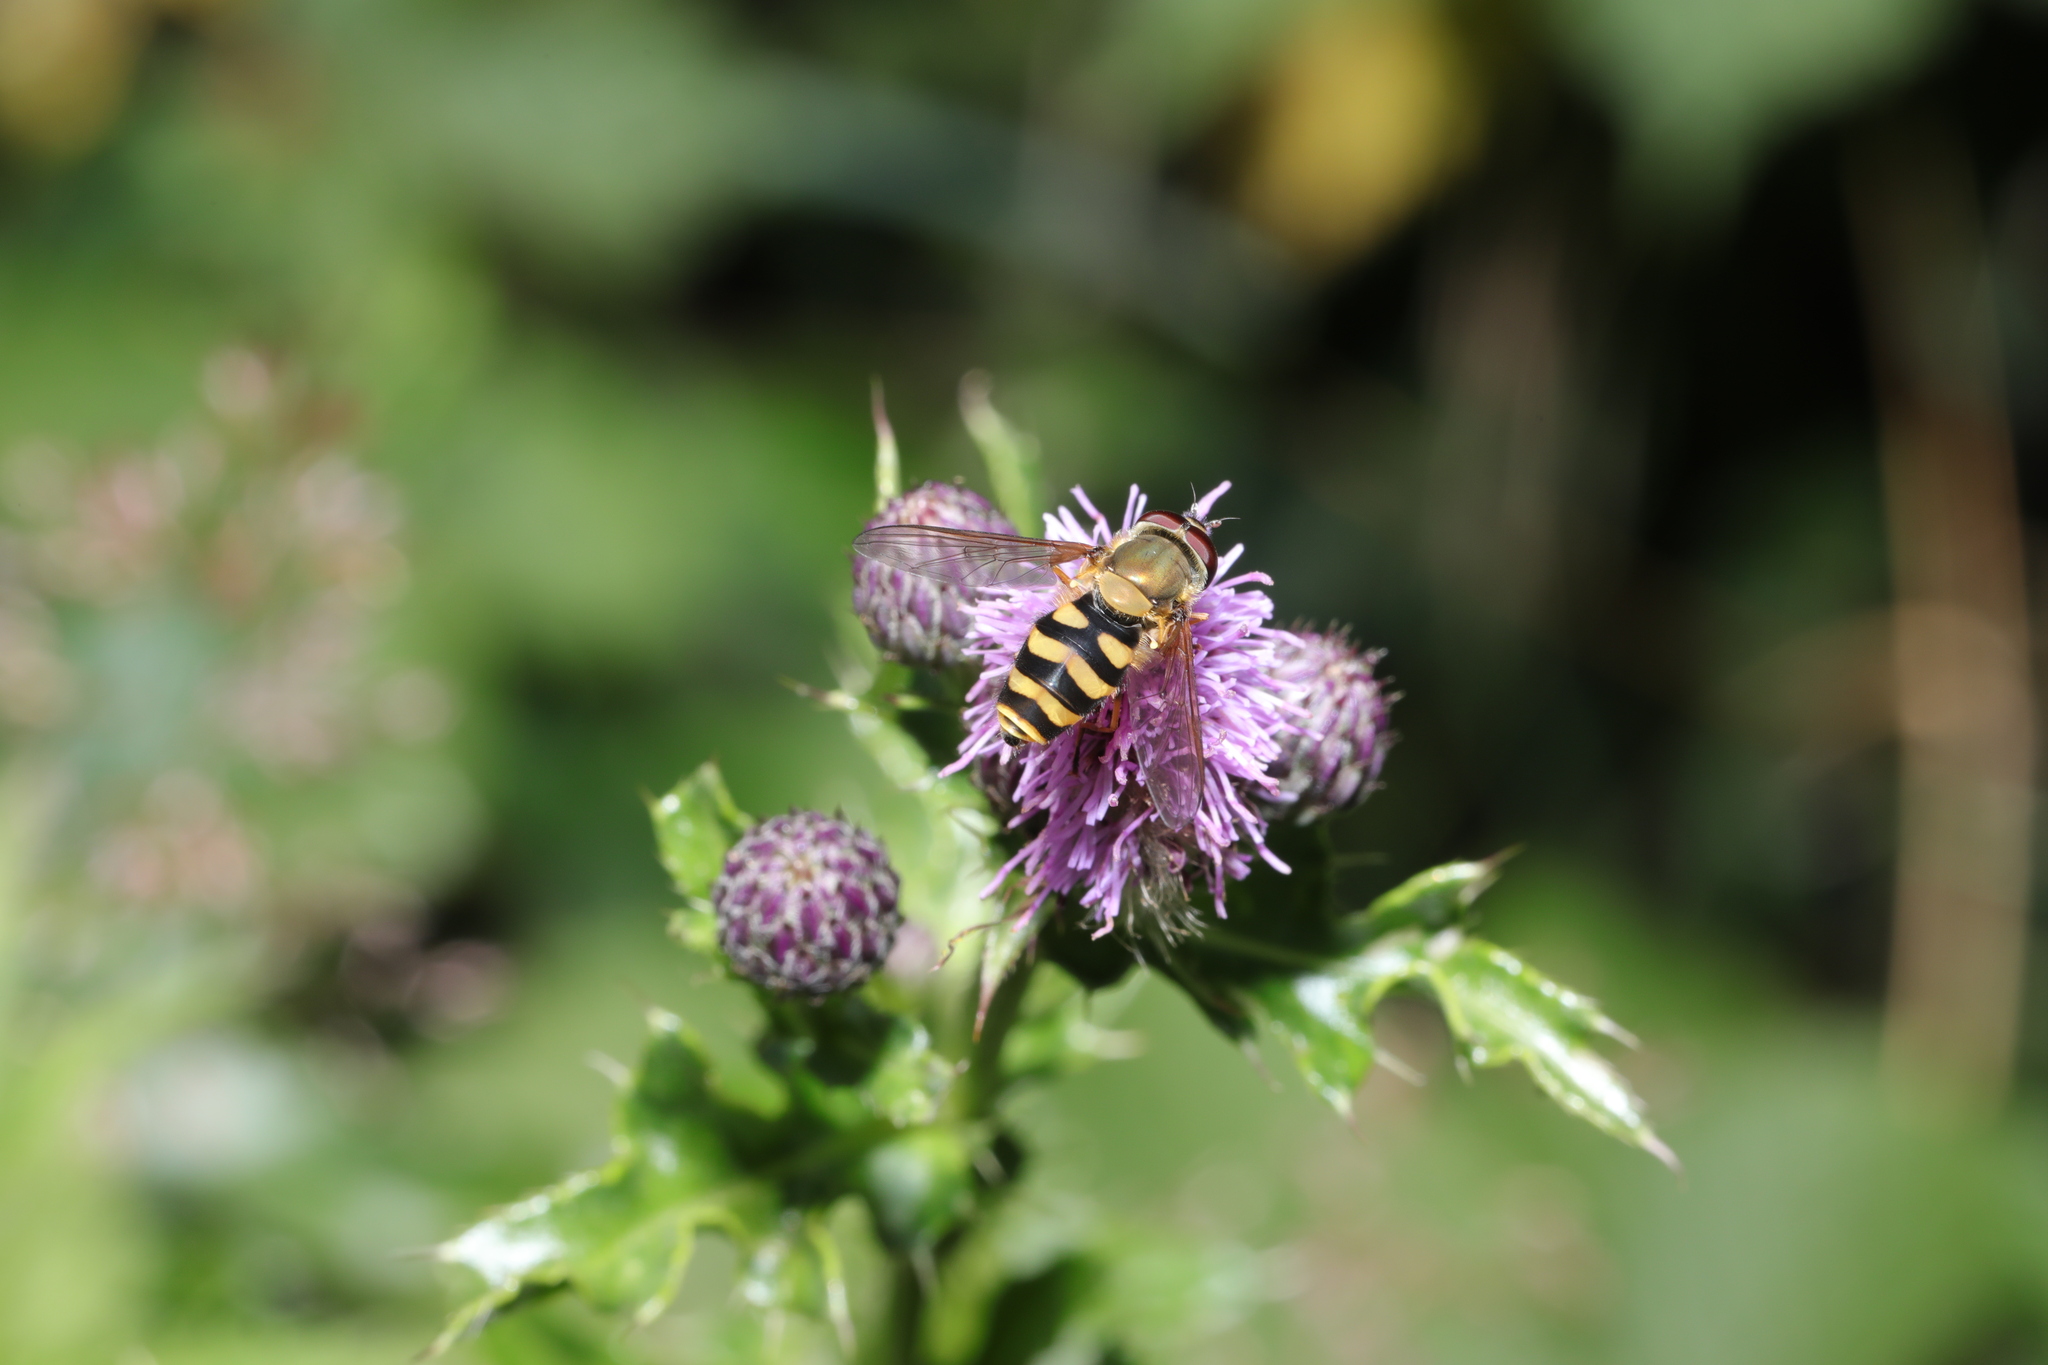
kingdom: Animalia
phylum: Arthropoda
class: Insecta
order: Diptera
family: Syrphidae
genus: Syrphus
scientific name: Syrphus
